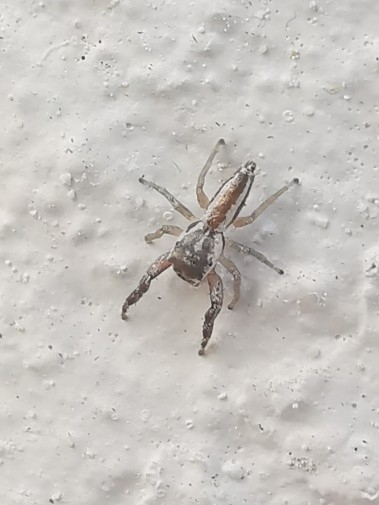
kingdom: Animalia
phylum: Arthropoda
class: Arachnida
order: Araneae
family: Salticidae
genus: Hentzia
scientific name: Hentzia vittata
